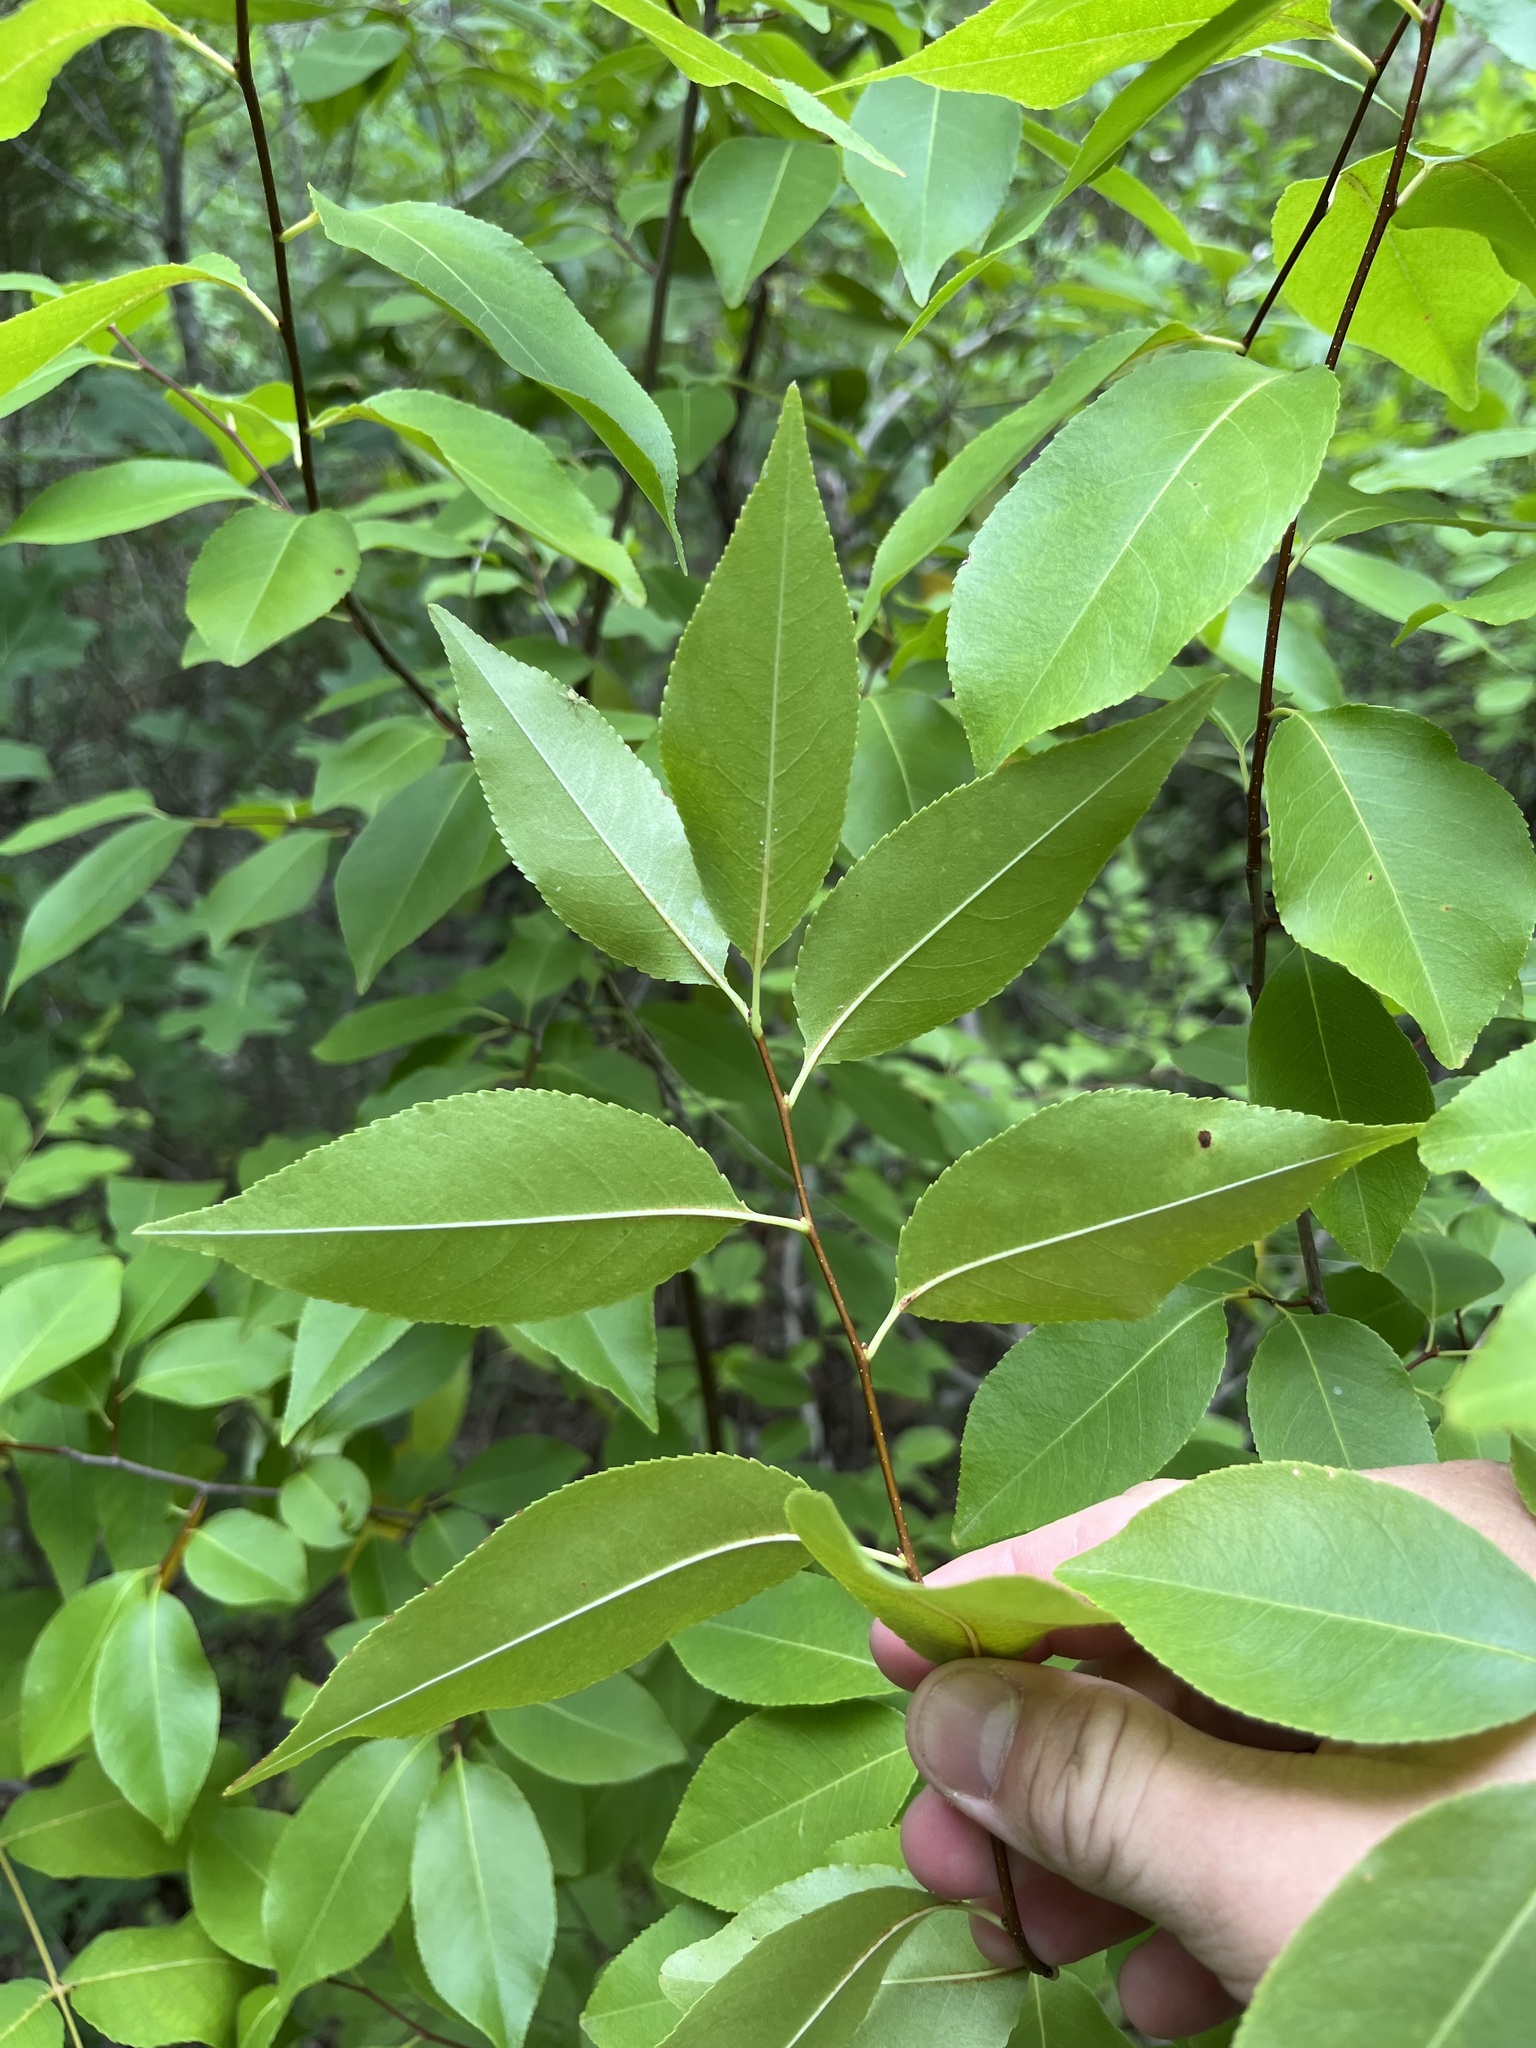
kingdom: Plantae
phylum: Tracheophyta
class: Magnoliopsida
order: Rosales
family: Rosaceae
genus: Prunus
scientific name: Prunus serotina
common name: Black cherry
